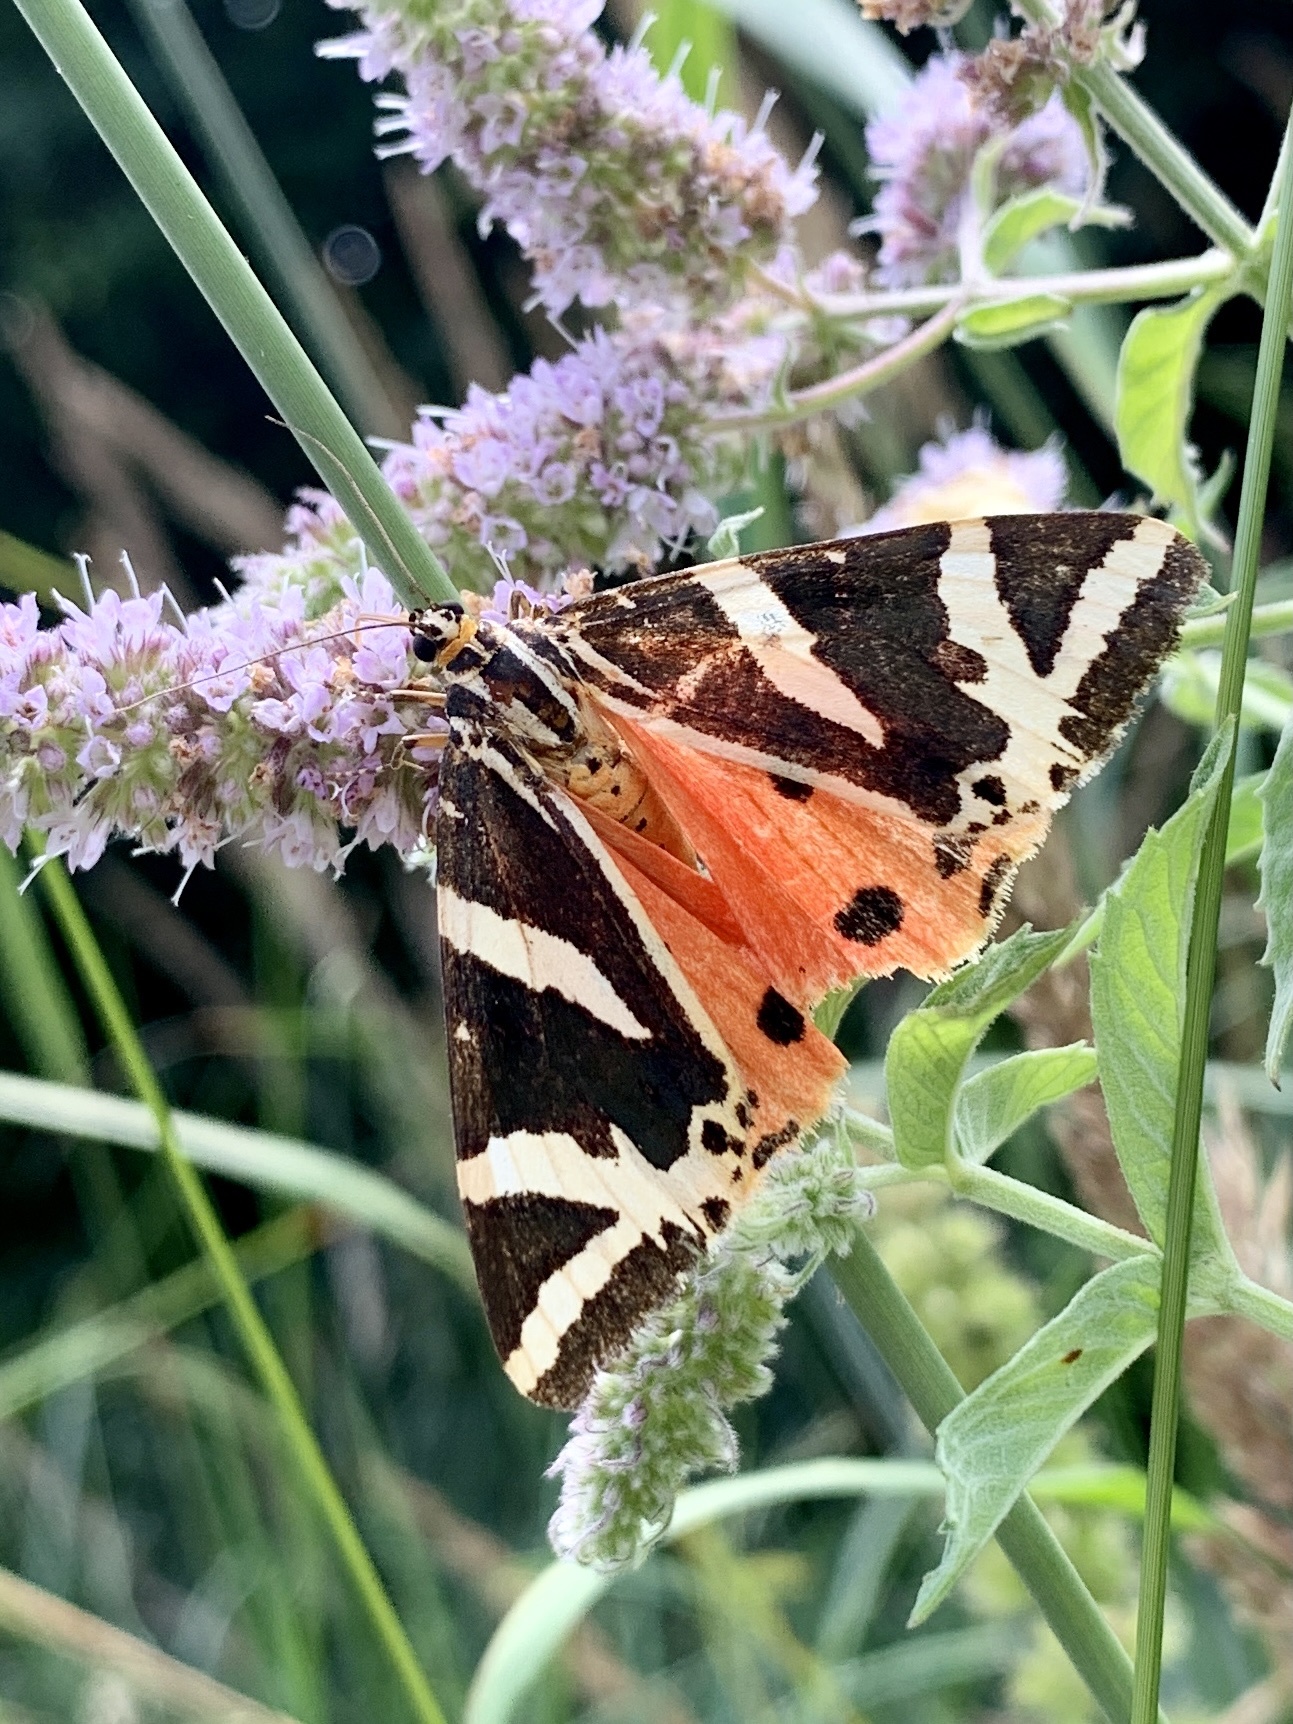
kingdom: Animalia
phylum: Arthropoda
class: Insecta
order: Lepidoptera
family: Erebidae
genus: Euplagia
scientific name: Euplagia quadripunctaria
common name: Jersey tiger
